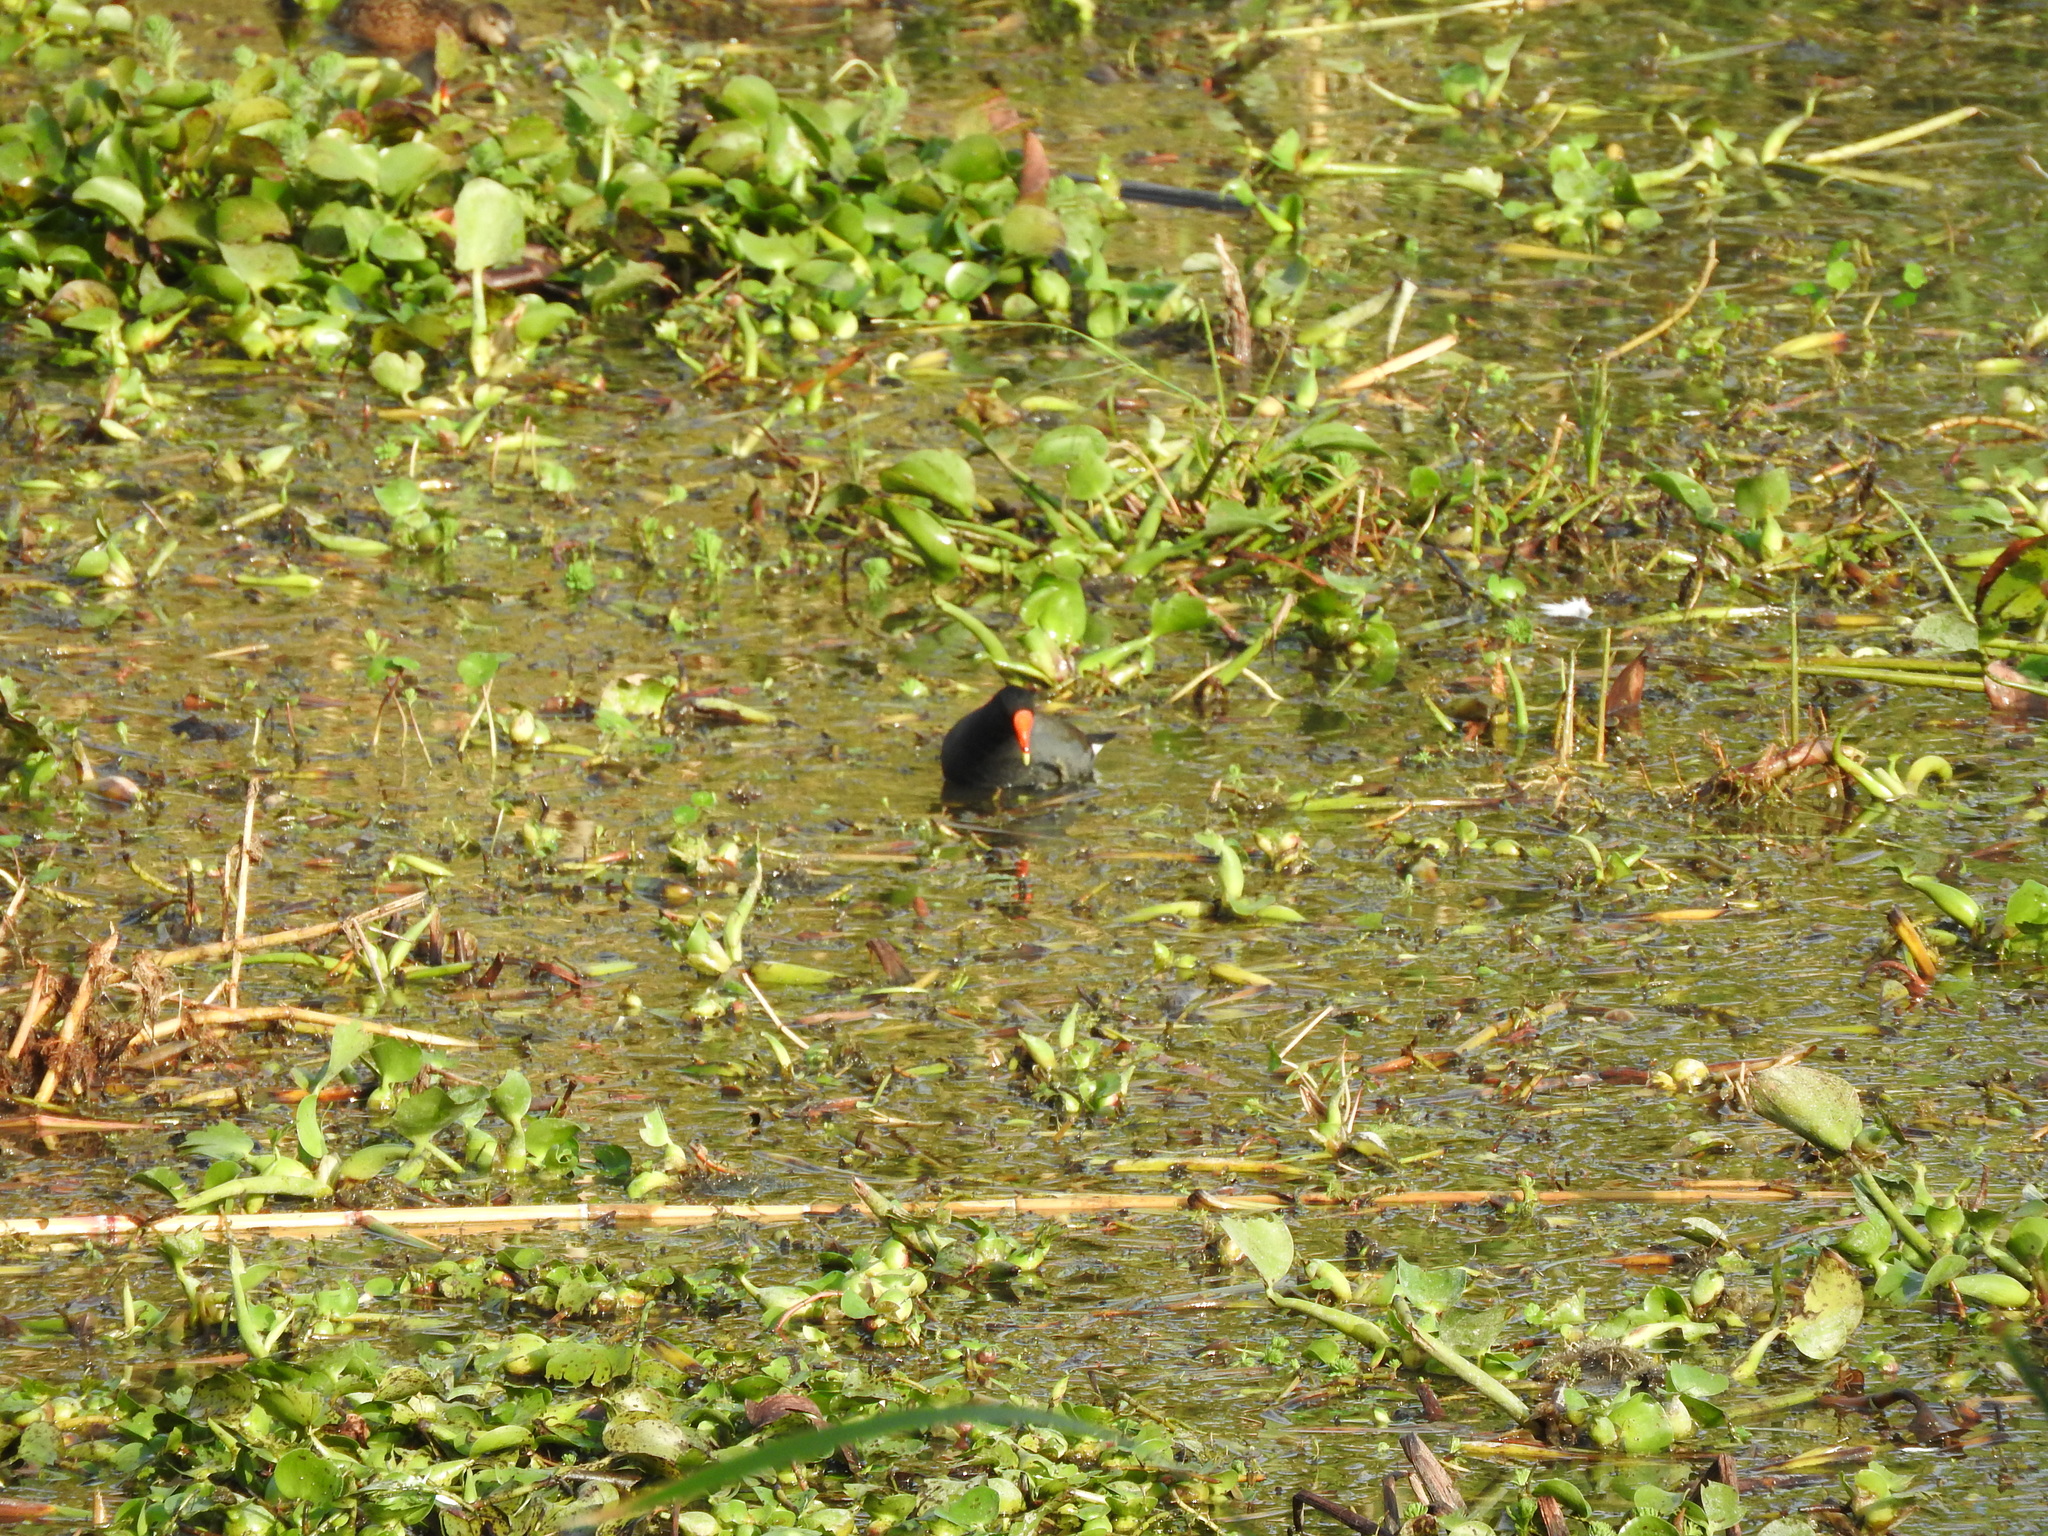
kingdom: Animalia
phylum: Chordata
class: Aves
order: Gruiformes
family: Rallidae
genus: Gallinula
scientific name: Gallinula chloropus
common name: Common moorhen
